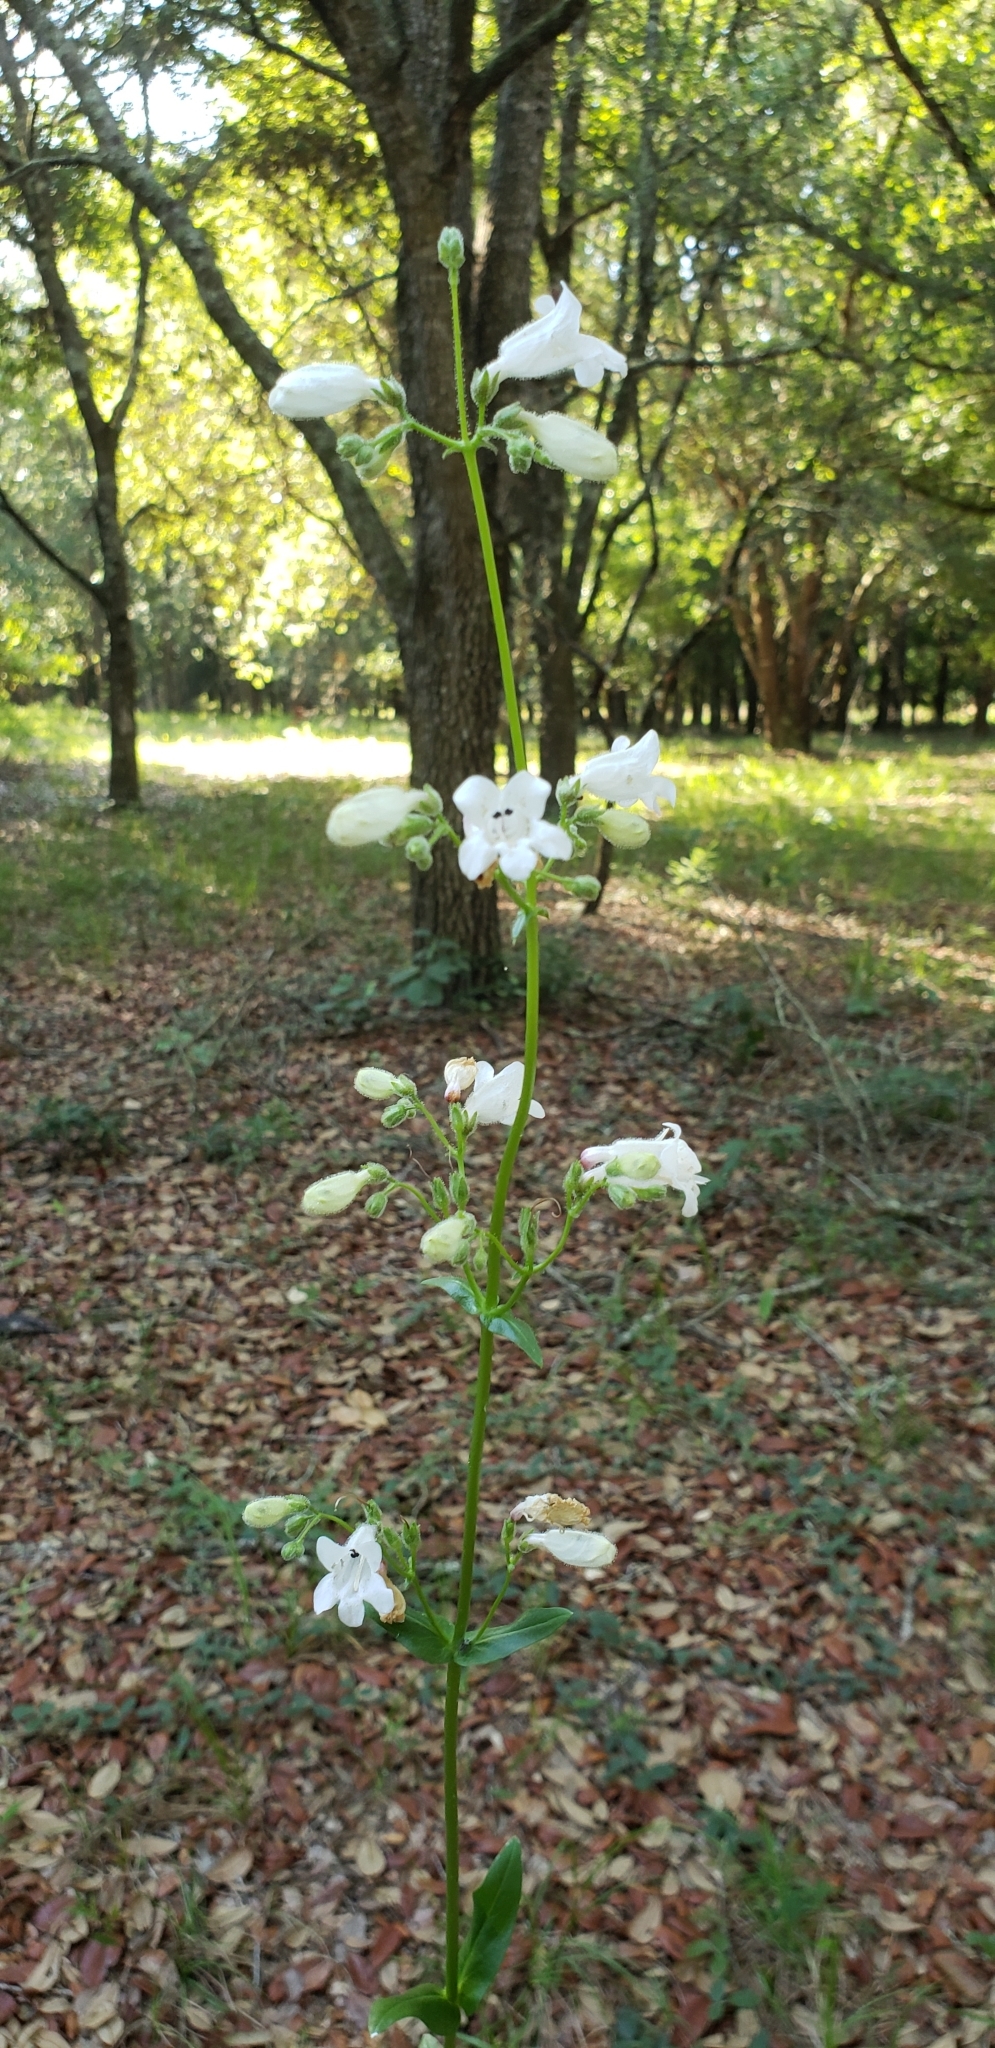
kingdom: Plantae
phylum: Tracheophyta
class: Magnoliopsida
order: Lamiales
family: Plantaginaceae
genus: Penstemon
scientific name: Penstemon multiflorus
